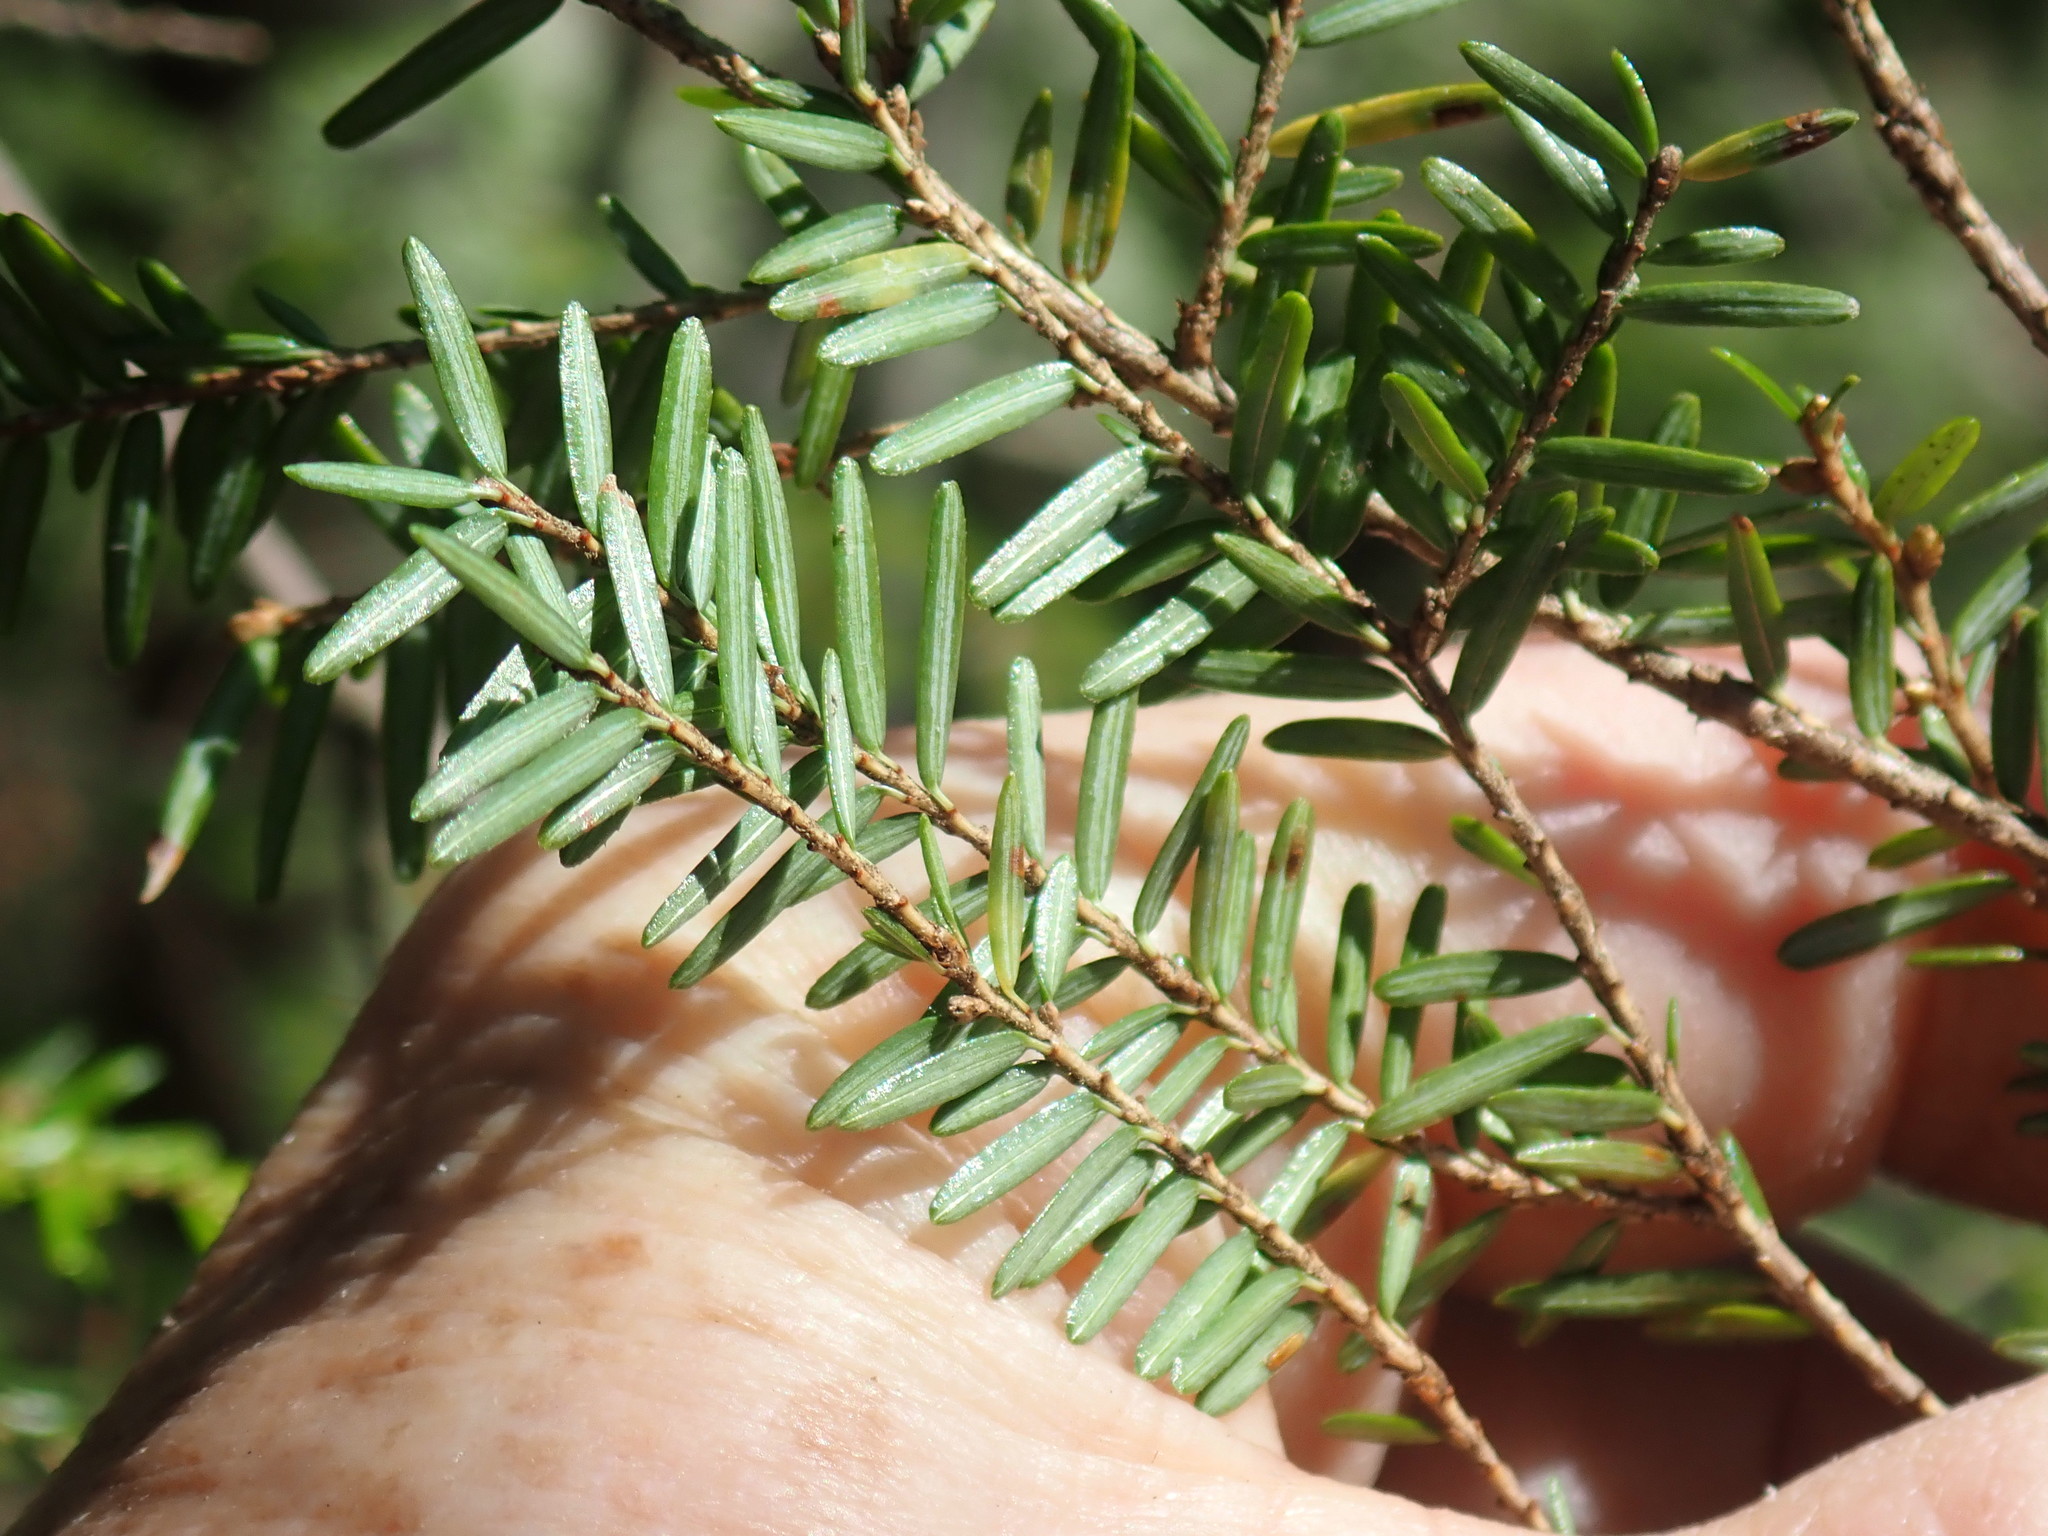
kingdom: Plantae
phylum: Tracheophyta
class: Pinopsida
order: Pinales
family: Pinaceae
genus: Tsuga
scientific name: Tsuga canadensis
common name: Eastern hemlock
